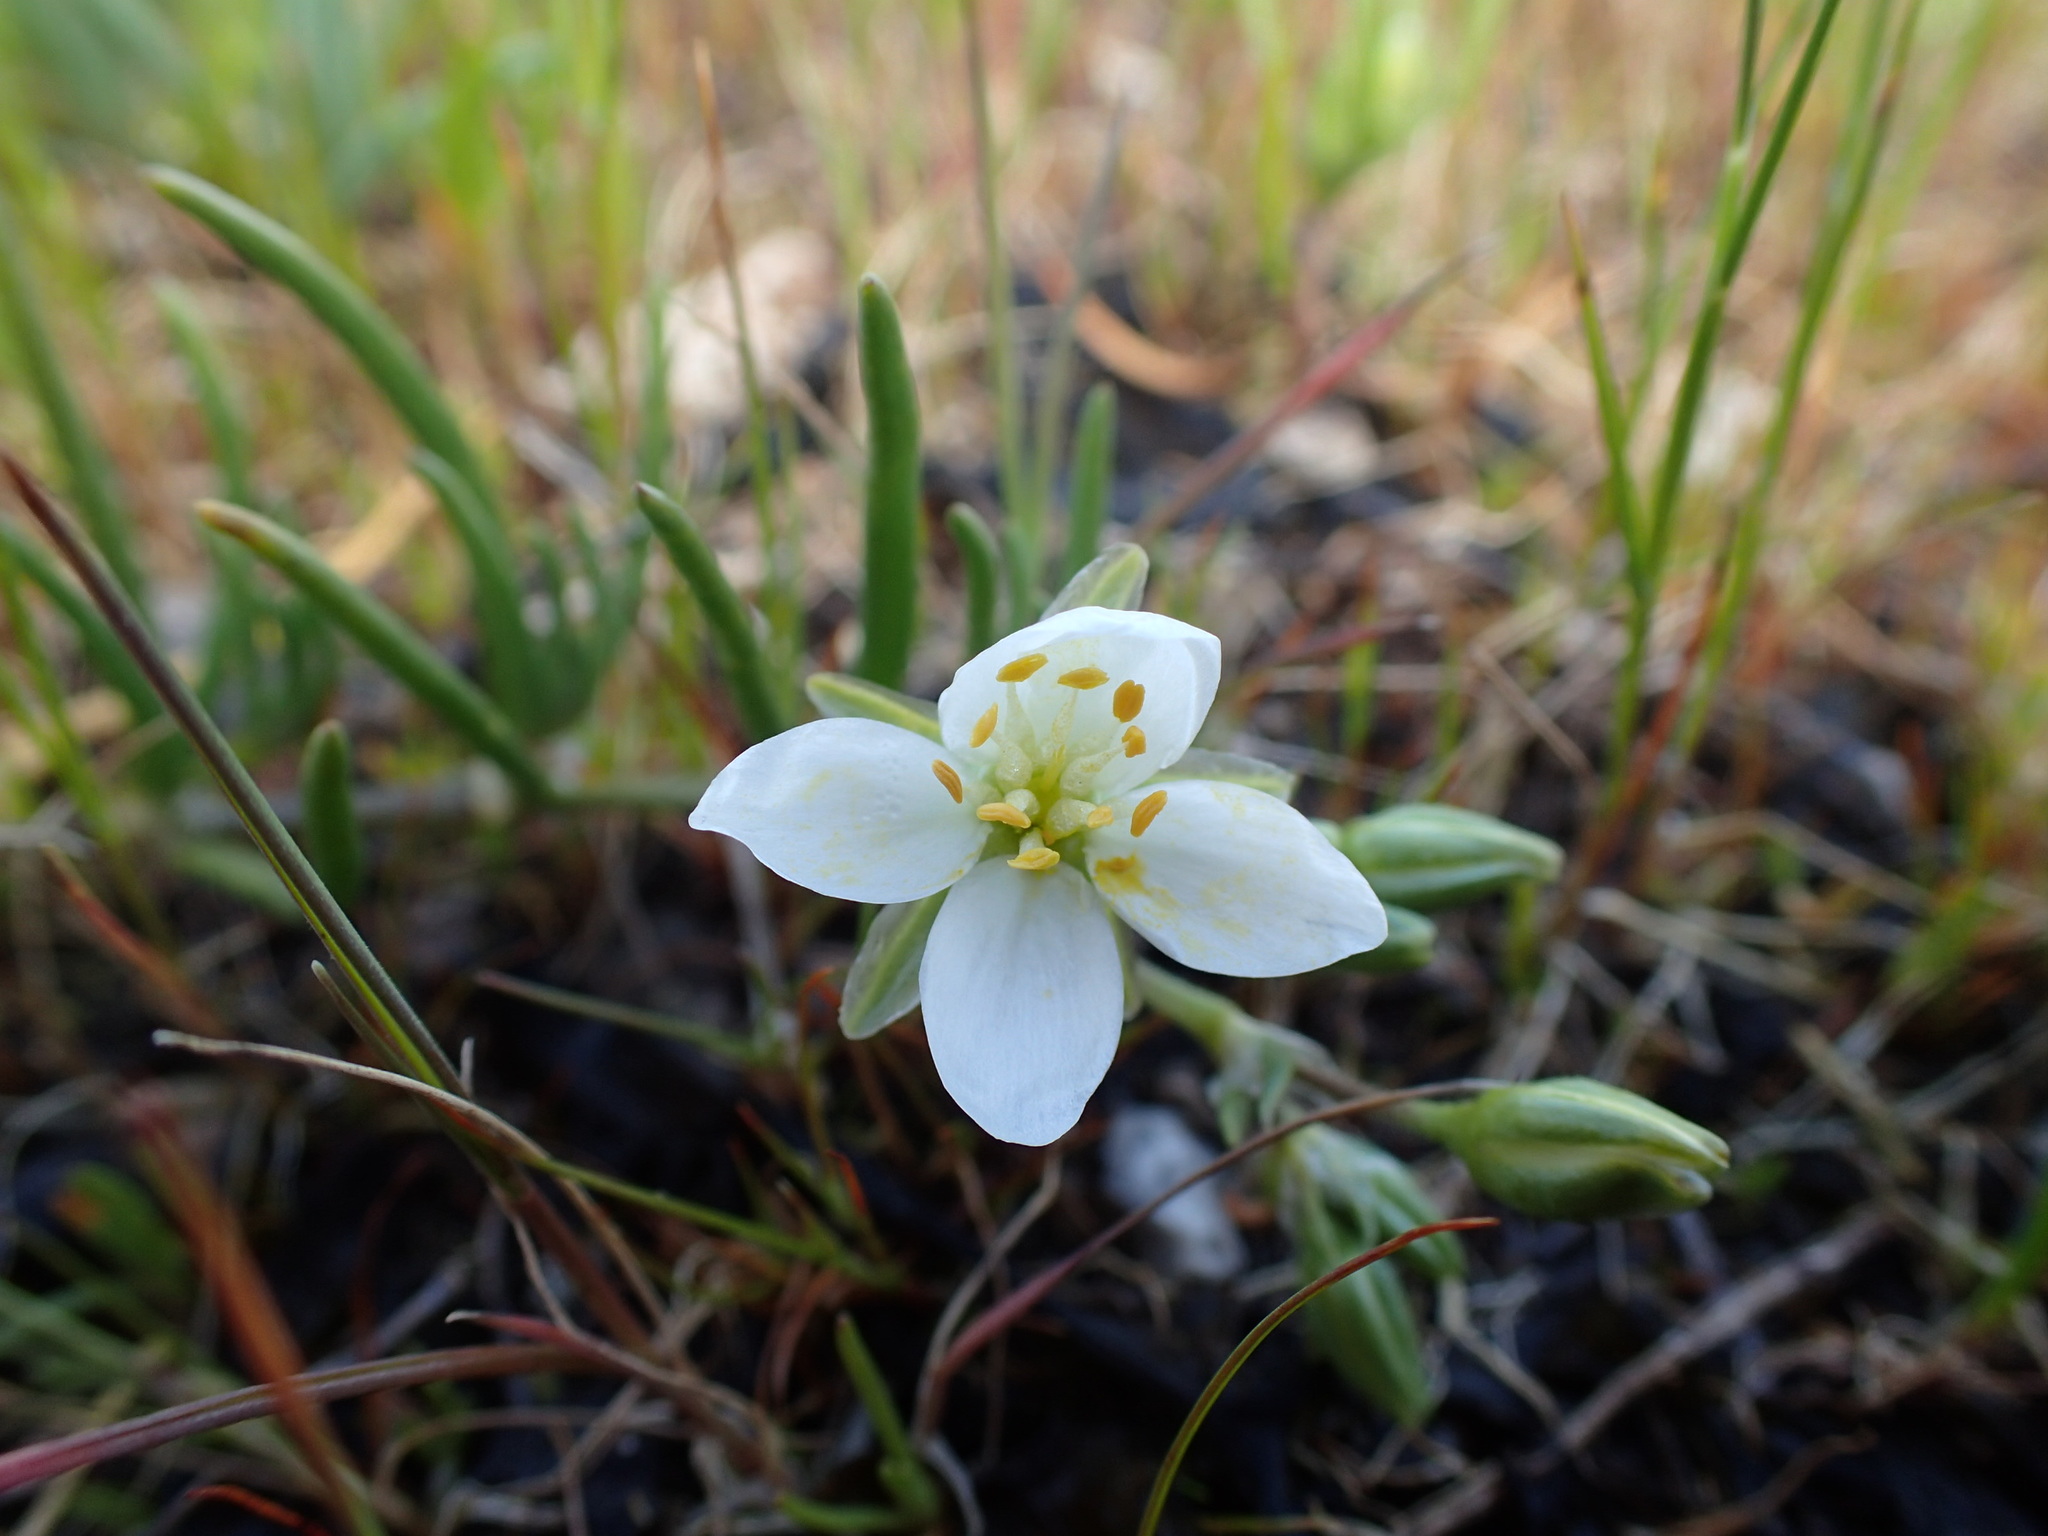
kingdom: Plantae
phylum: Tracheophyta
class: Magnoliopsida
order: Caryophyllales
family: Caryophyllaceae
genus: Spergularia
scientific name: Spergularia macrotheca
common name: Beach sand-spurrey
